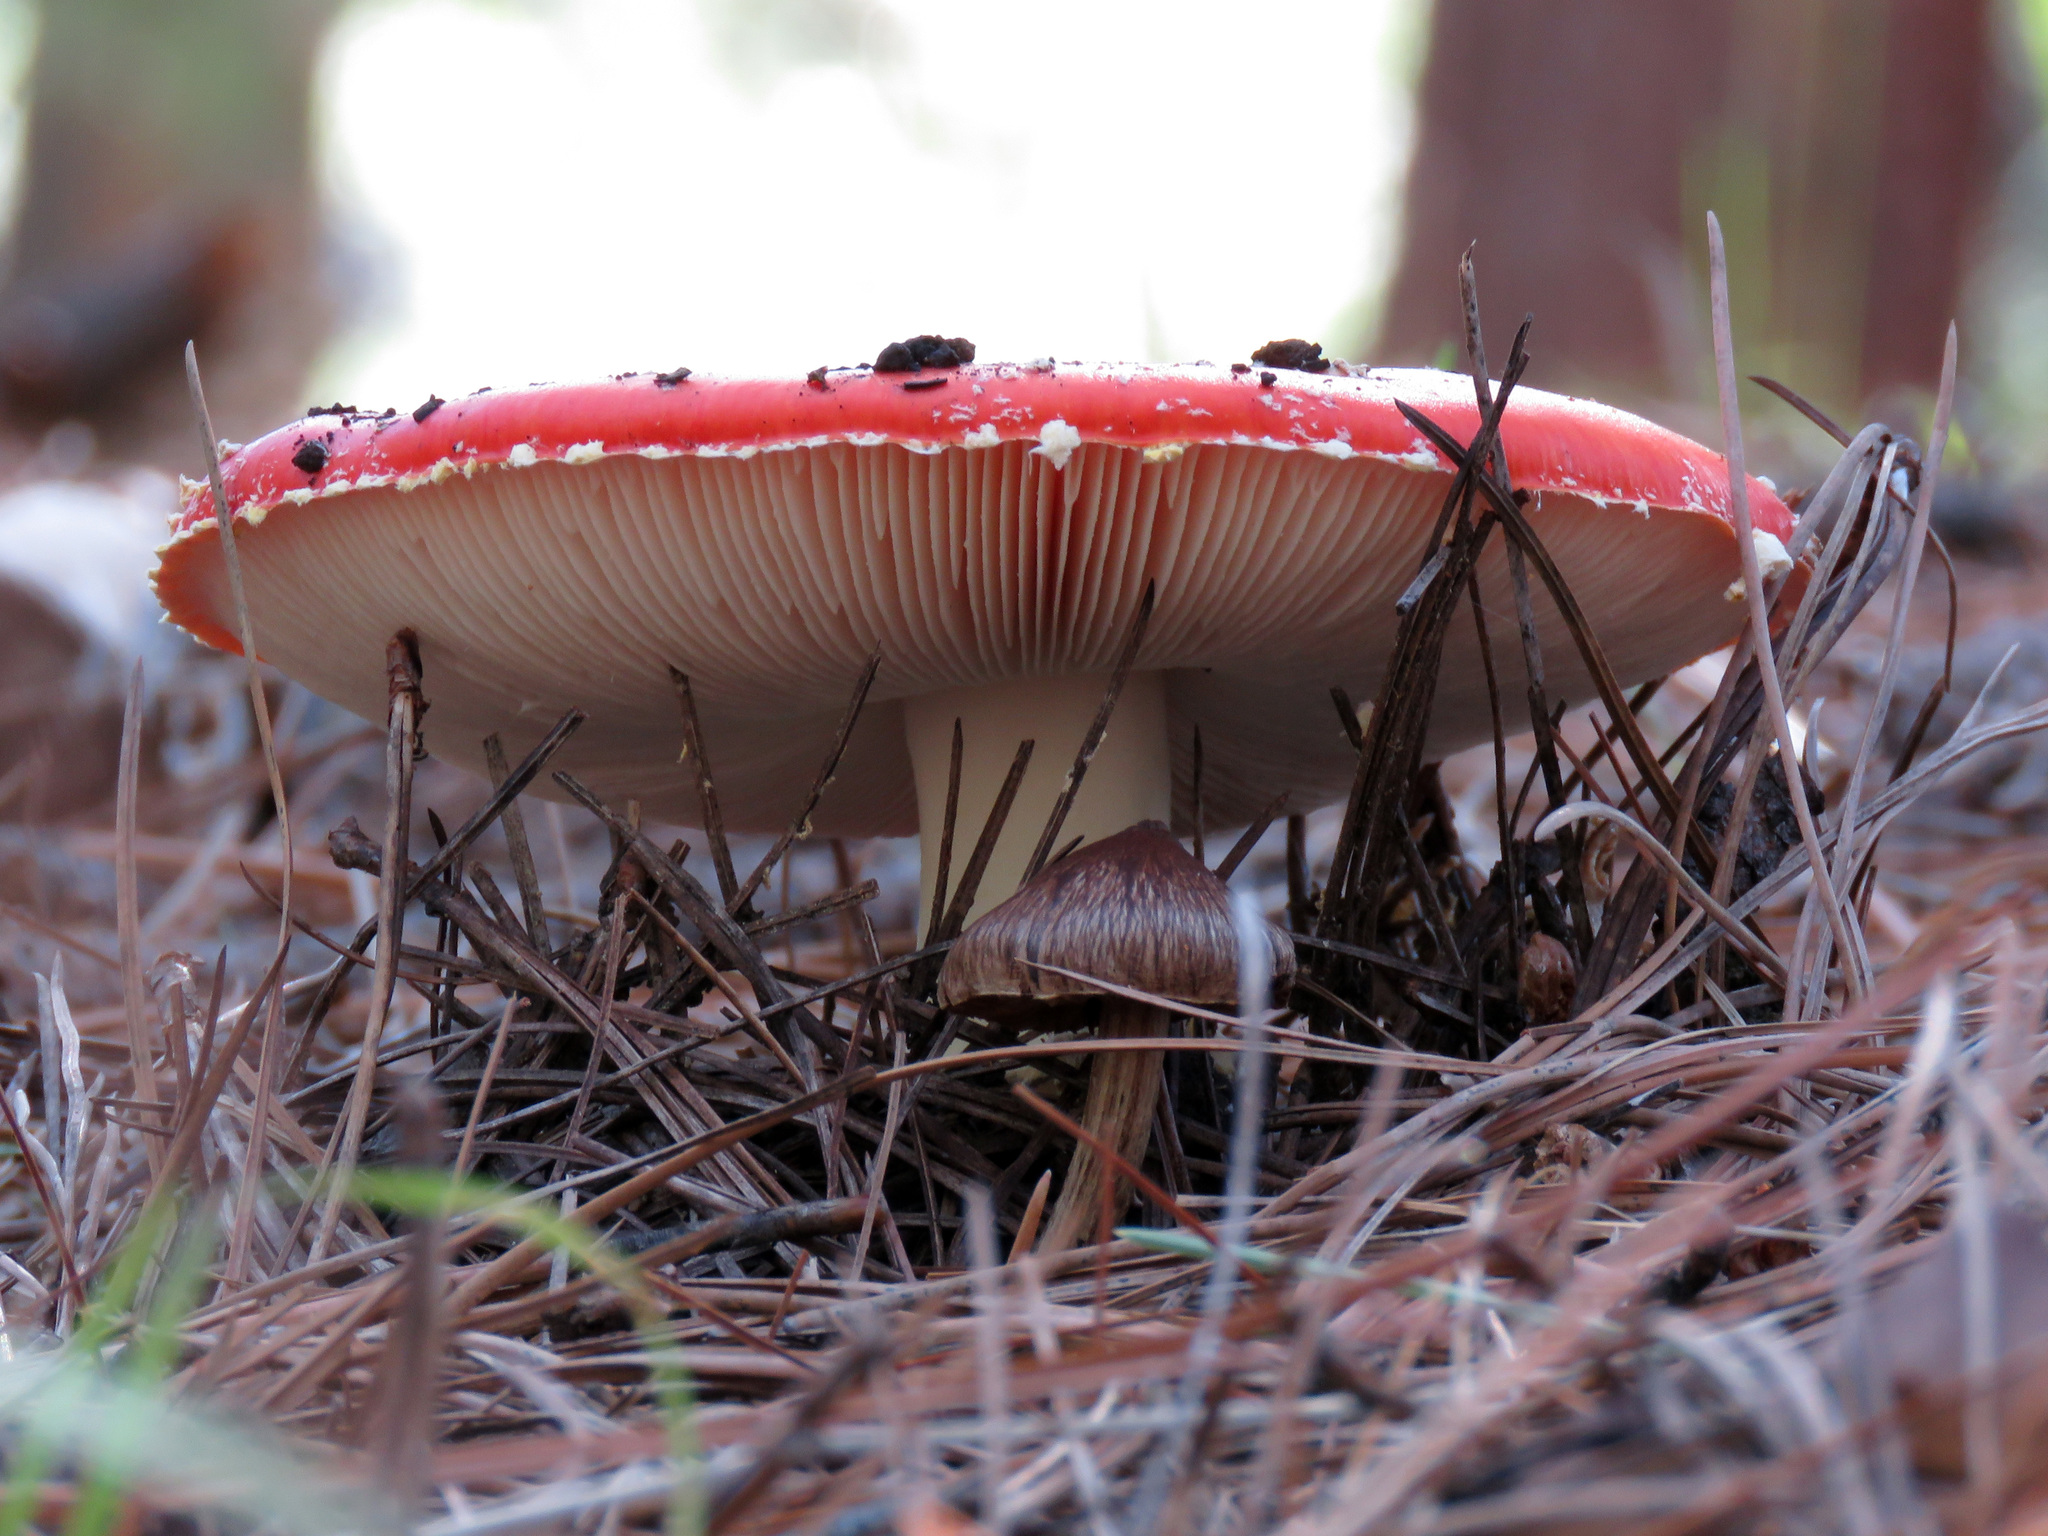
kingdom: Fungi
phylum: Basidiomycota
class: Agaricomycetes
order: Agaricales
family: Amanitaceae
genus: Amanita
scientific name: Amanita muscaria
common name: Fly agaric
